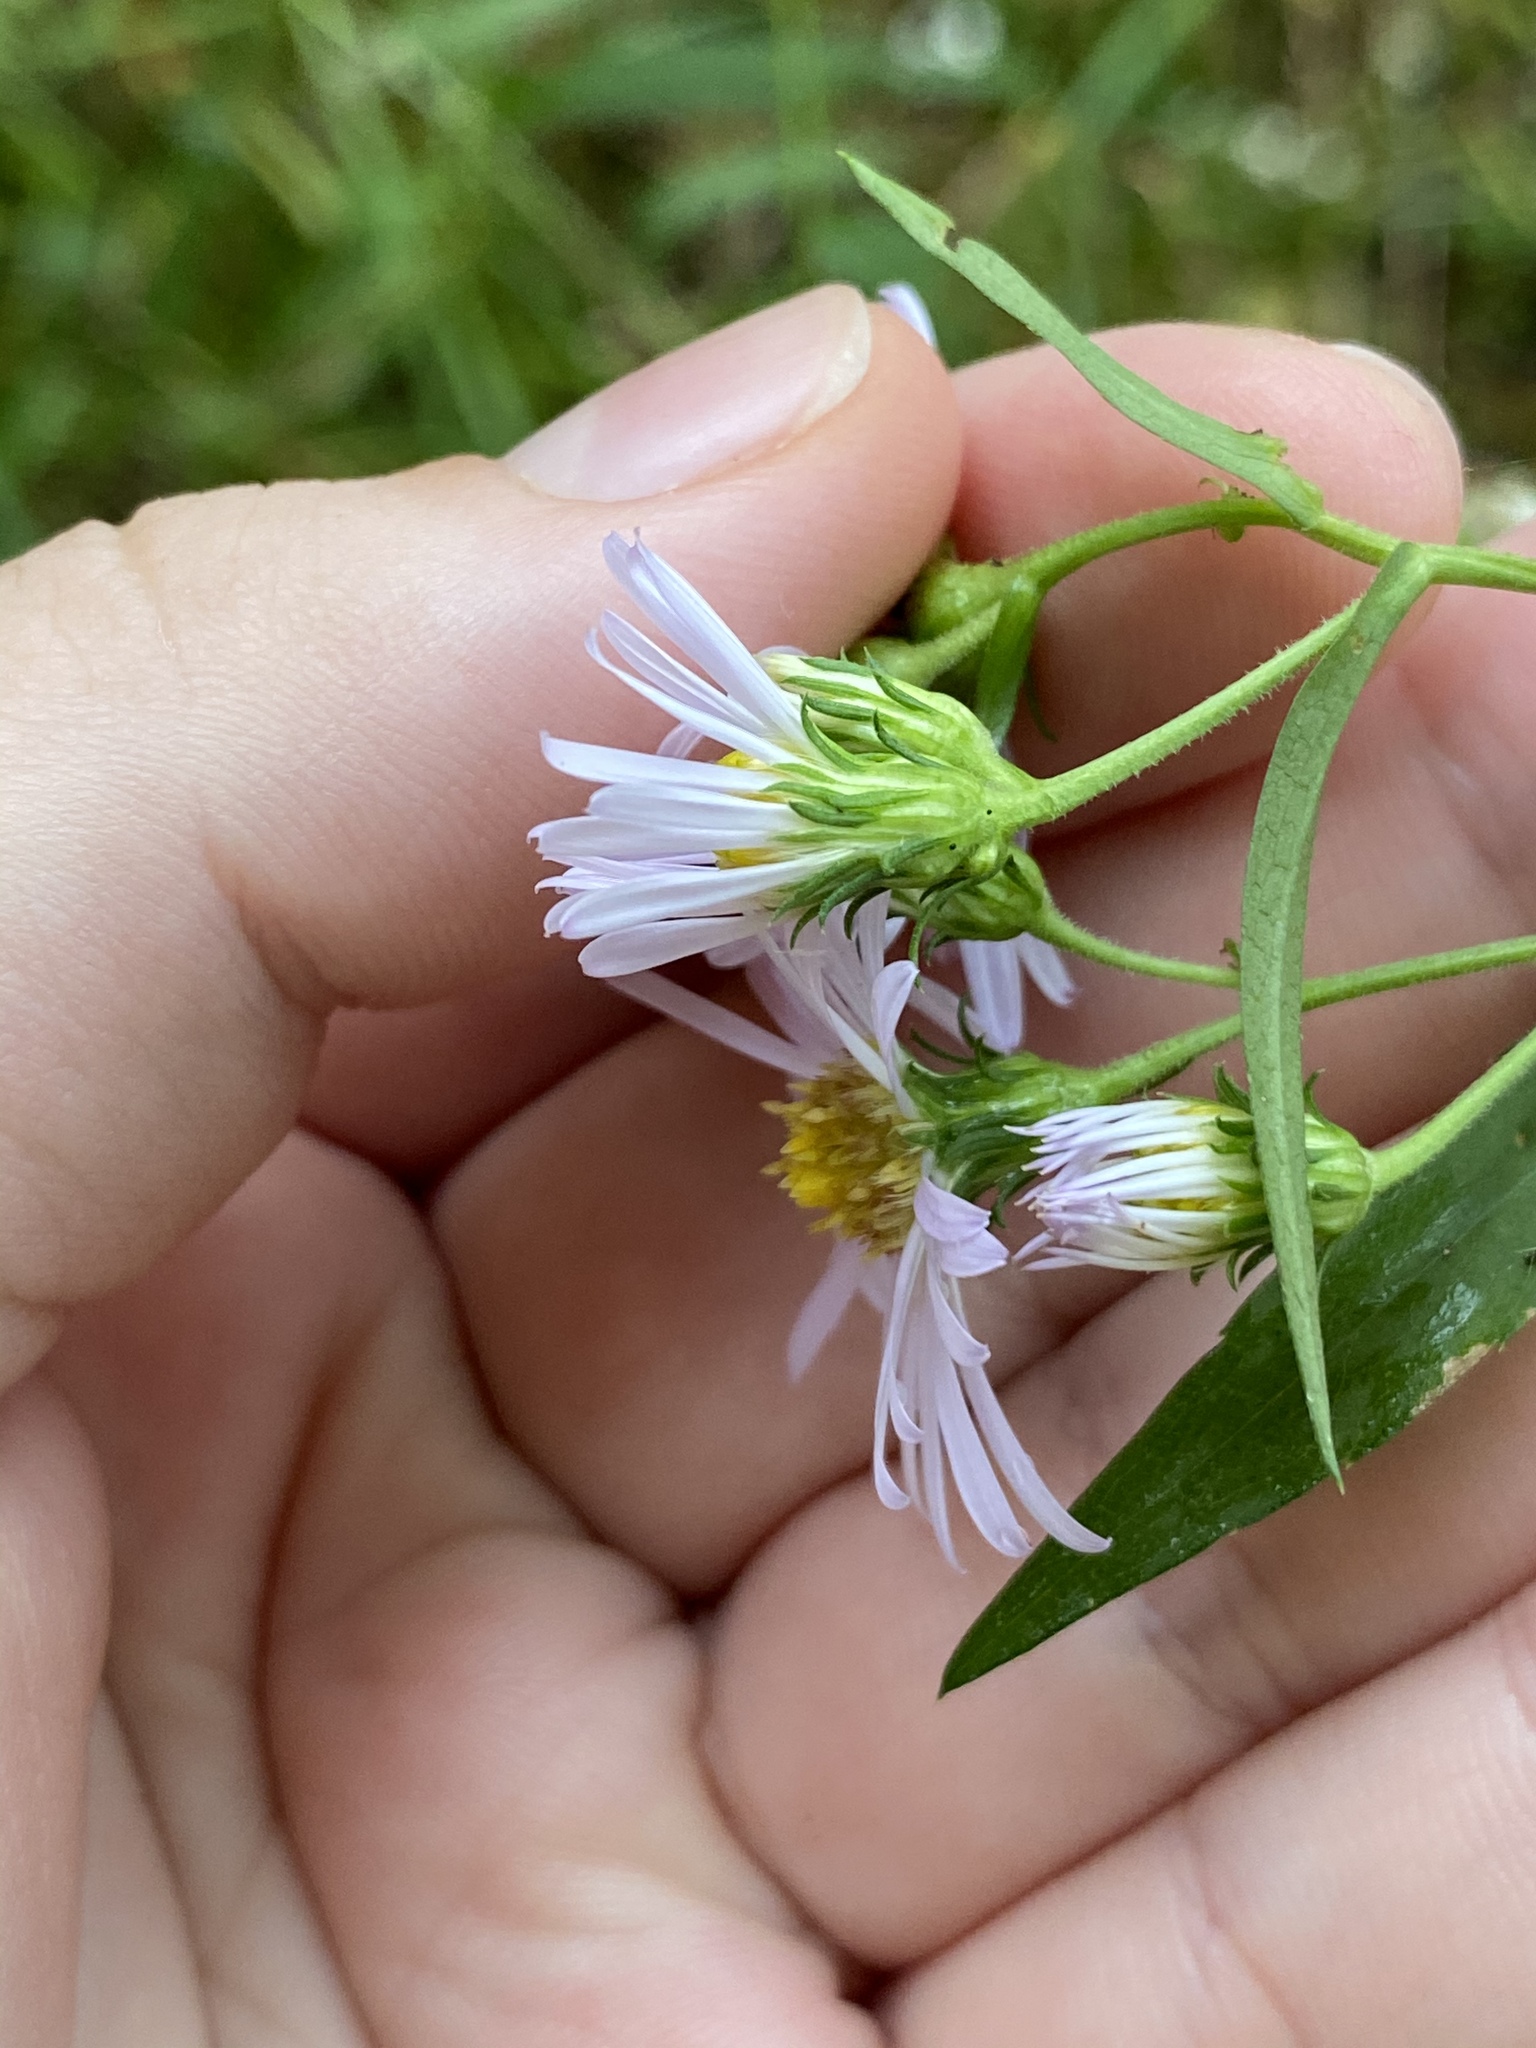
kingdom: Plantae
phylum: Tracheophyta
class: Magnoliopsida
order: Asterales
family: Asteraceae
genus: Symphyotrichum
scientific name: Symphyotrichum novi-belgii
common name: Michaelmas daisy
